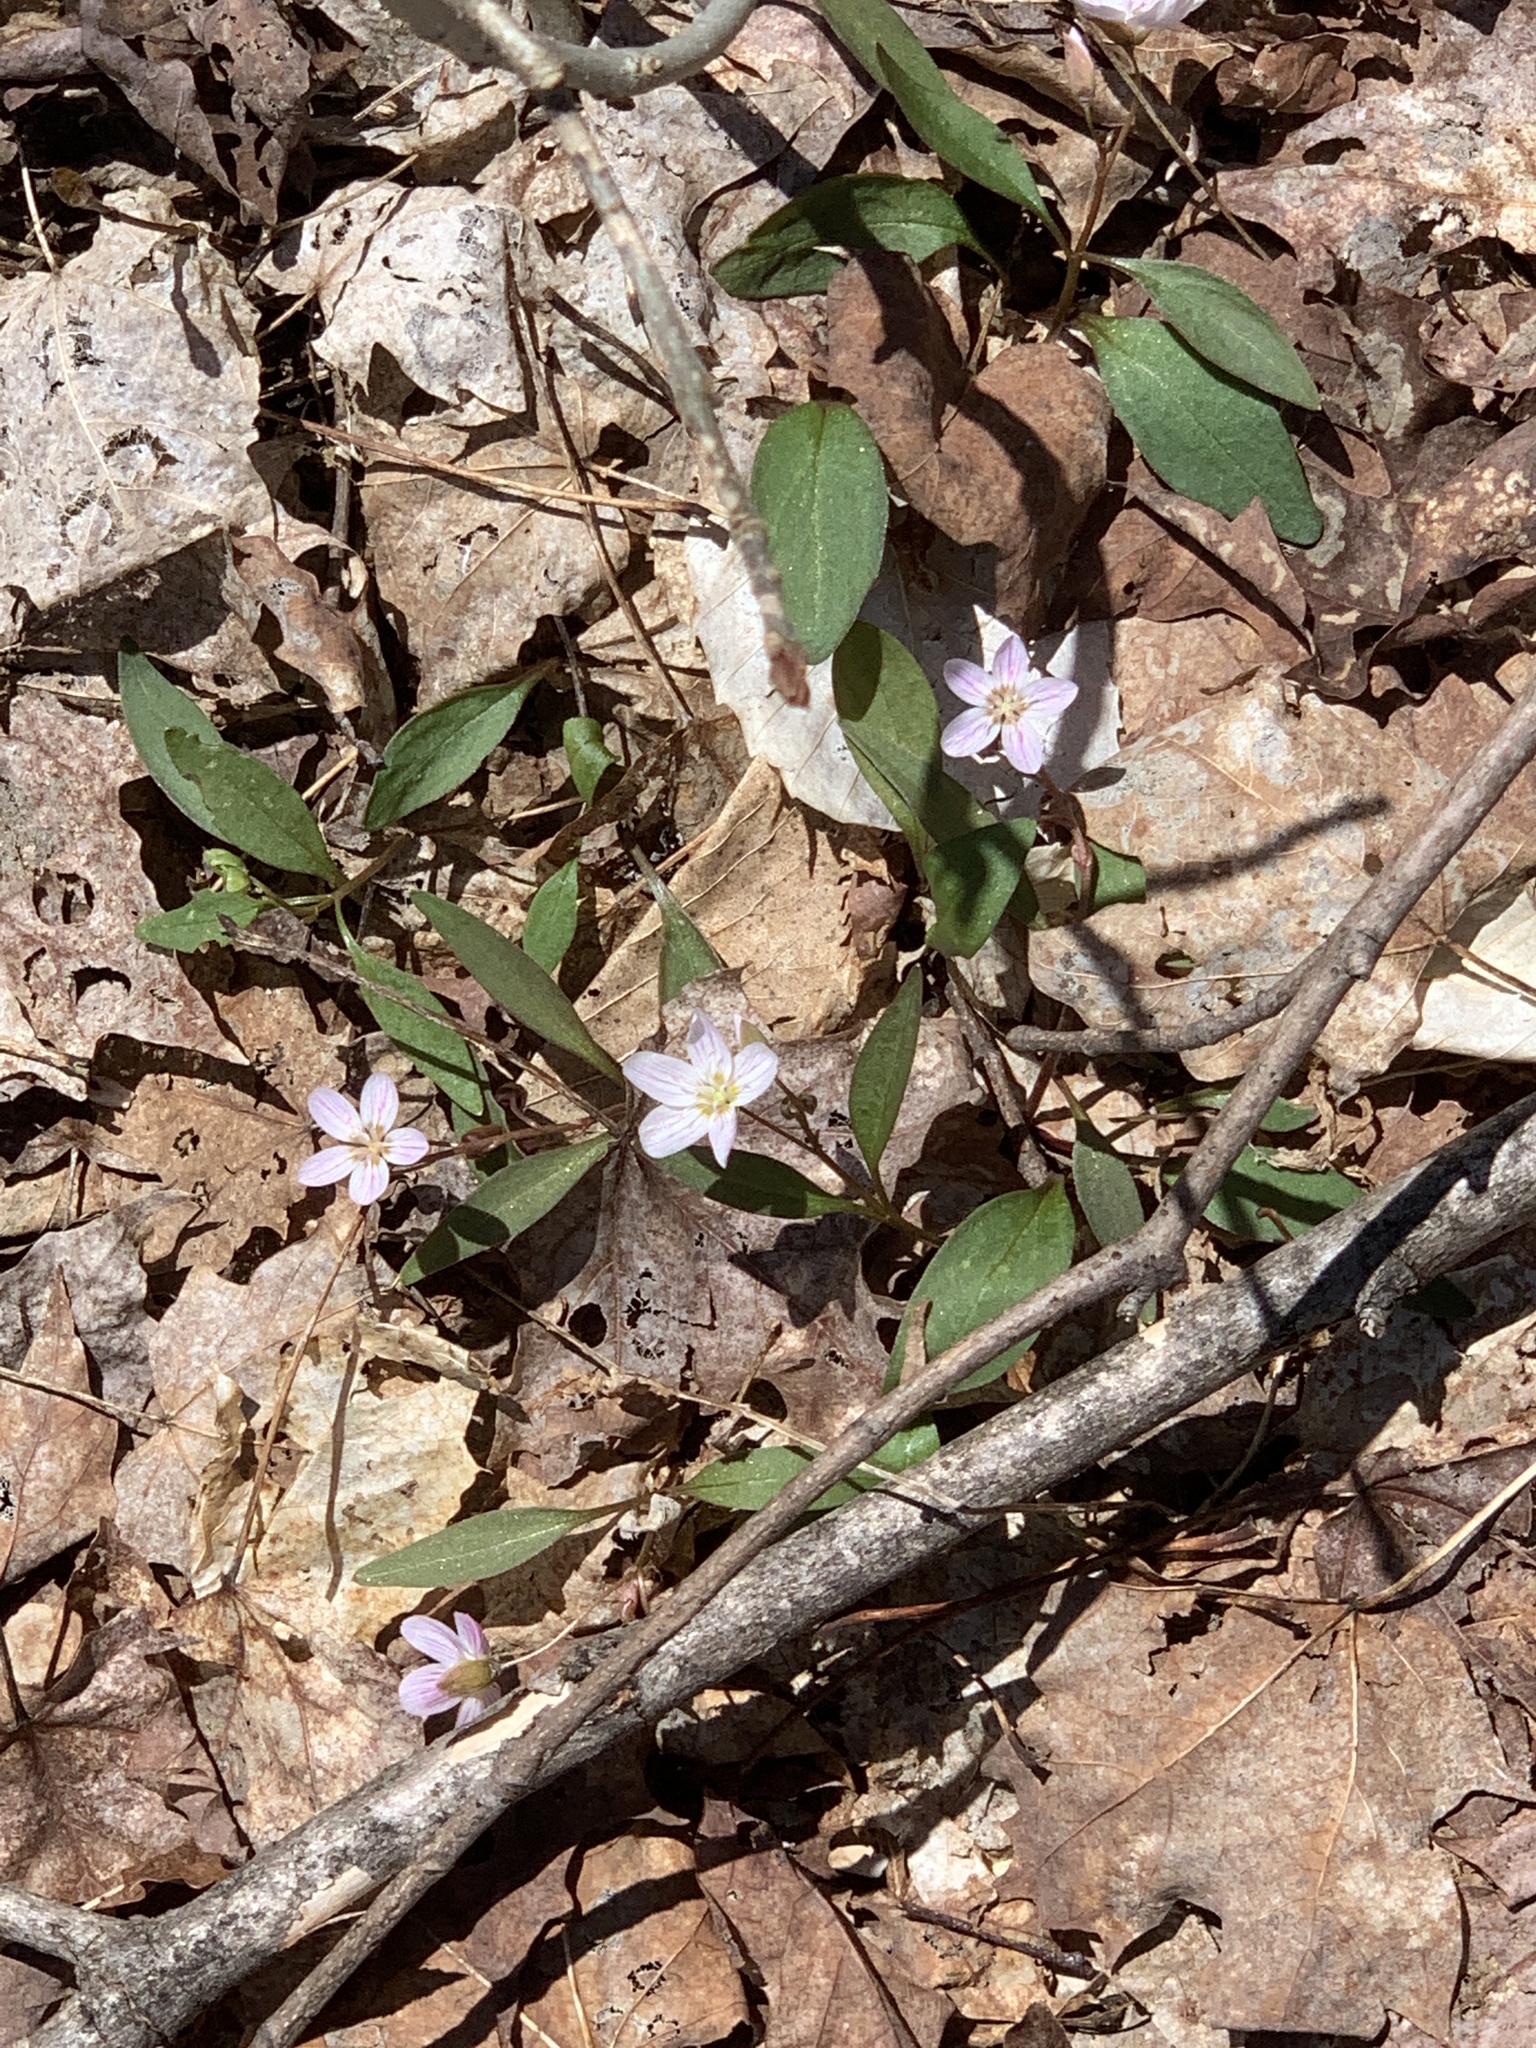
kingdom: Plantae
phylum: Tracheophyta
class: Magnoliopsida
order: Caryophyllales
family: Montiaceae
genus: Claytonia
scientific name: Claytonia caroliniana
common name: Carolina spring beauty
